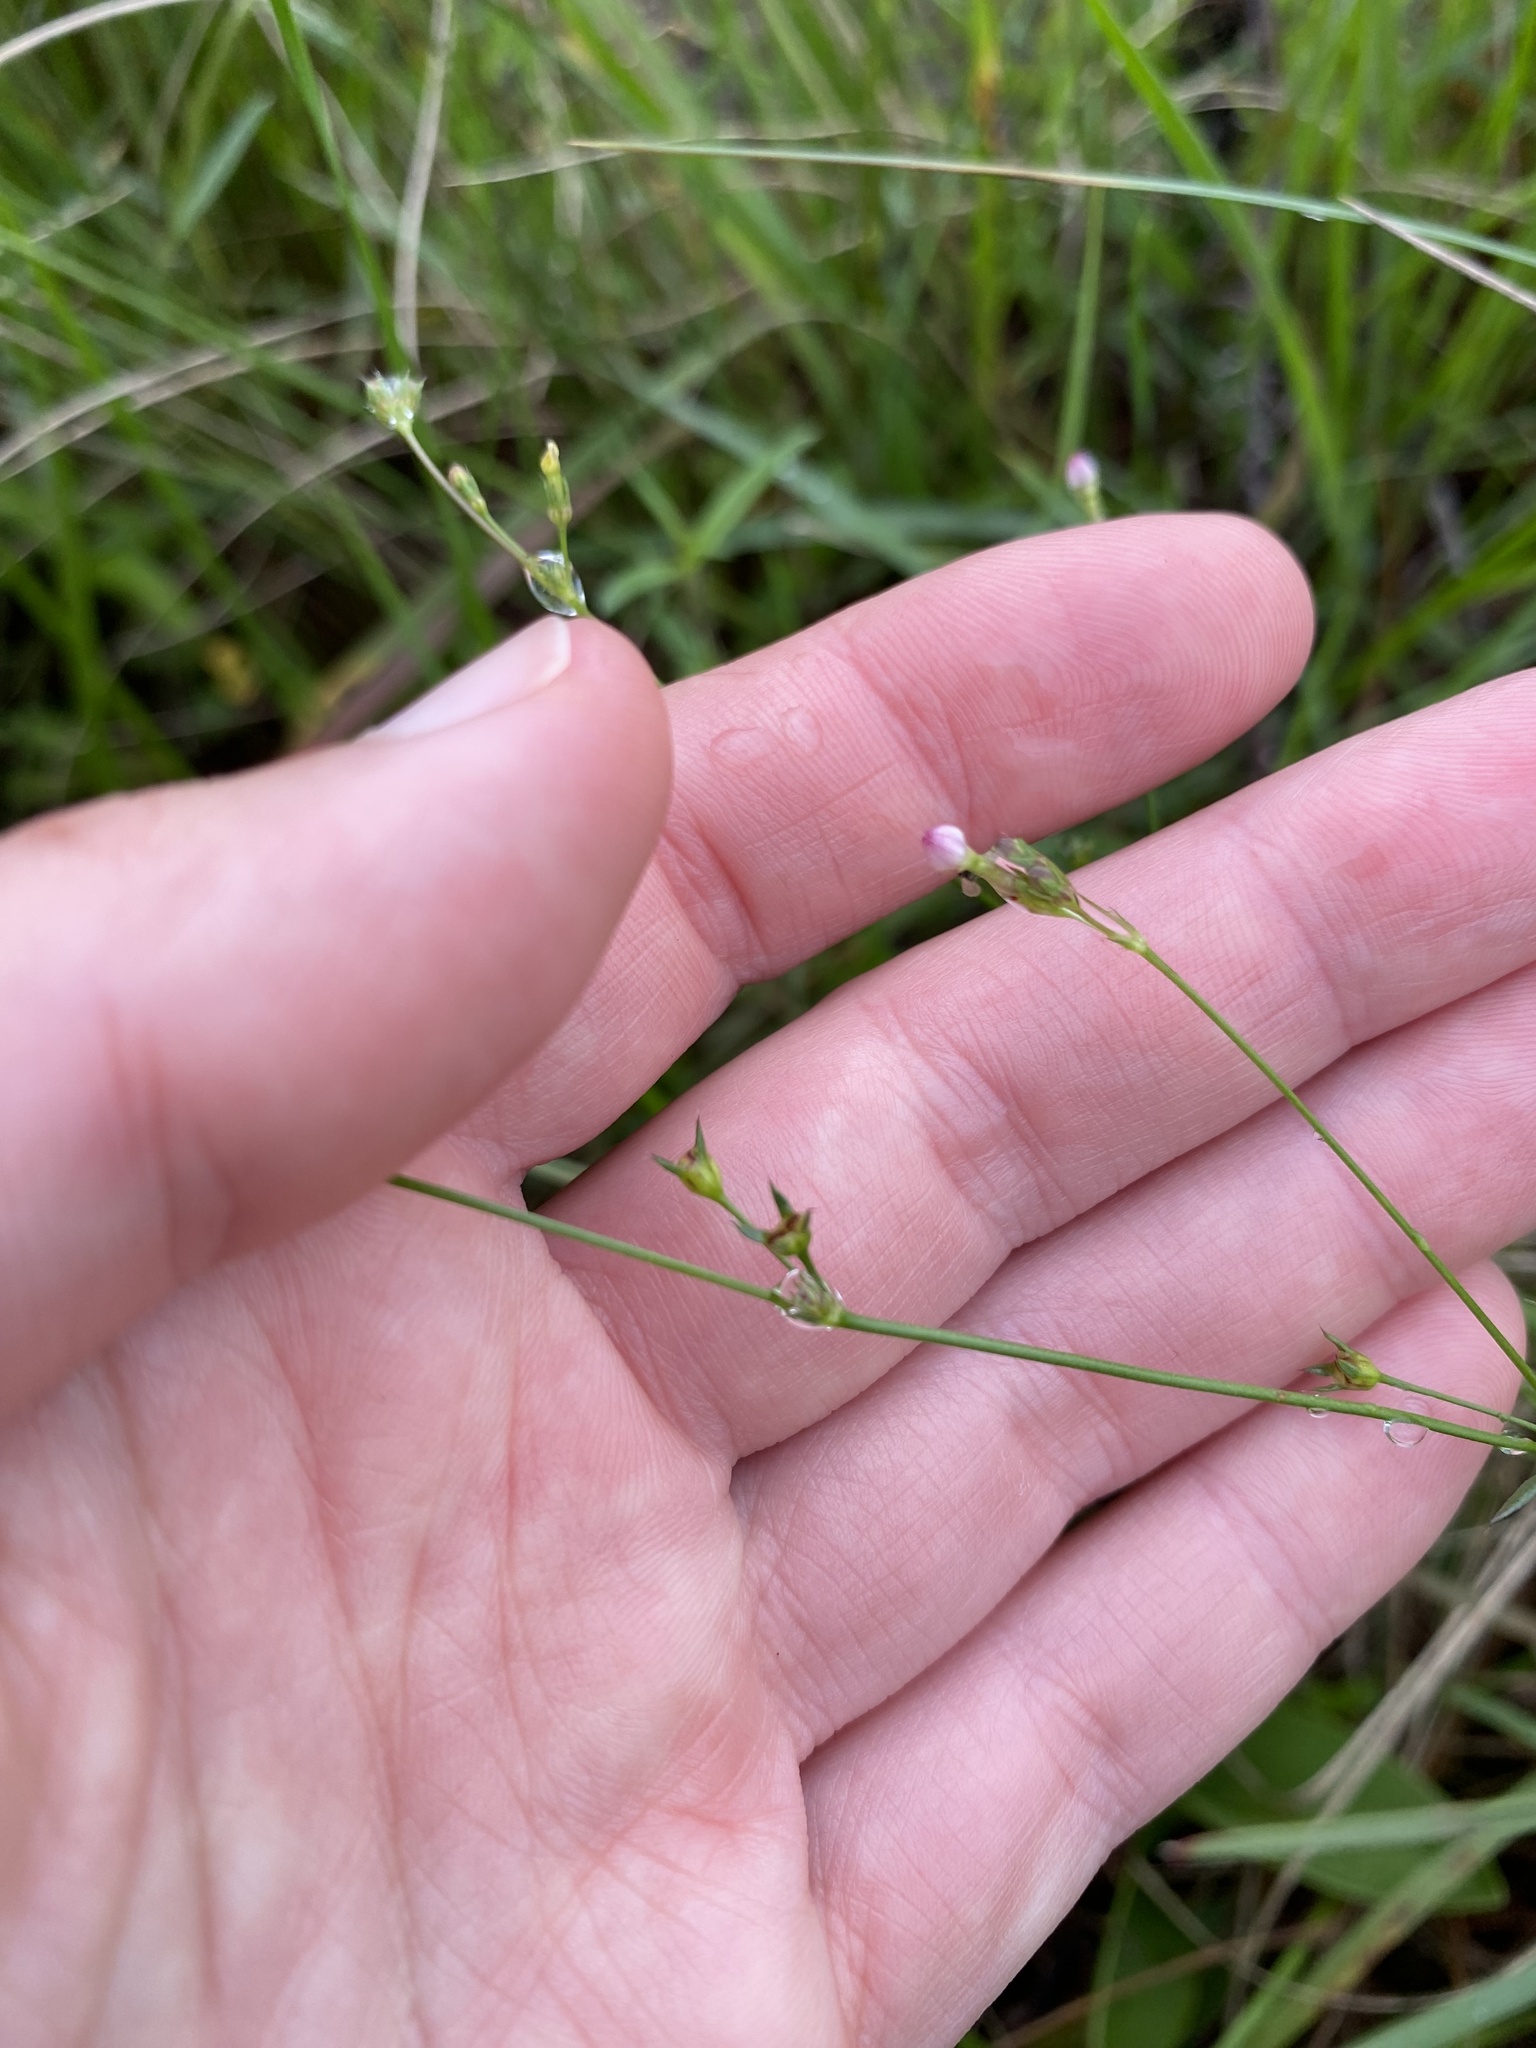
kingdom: Plantae
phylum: Tracheophyta
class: Magnoliopsida
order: Malpighiales
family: Hypericaceae
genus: Hypericum
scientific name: Hypericum lalandii
